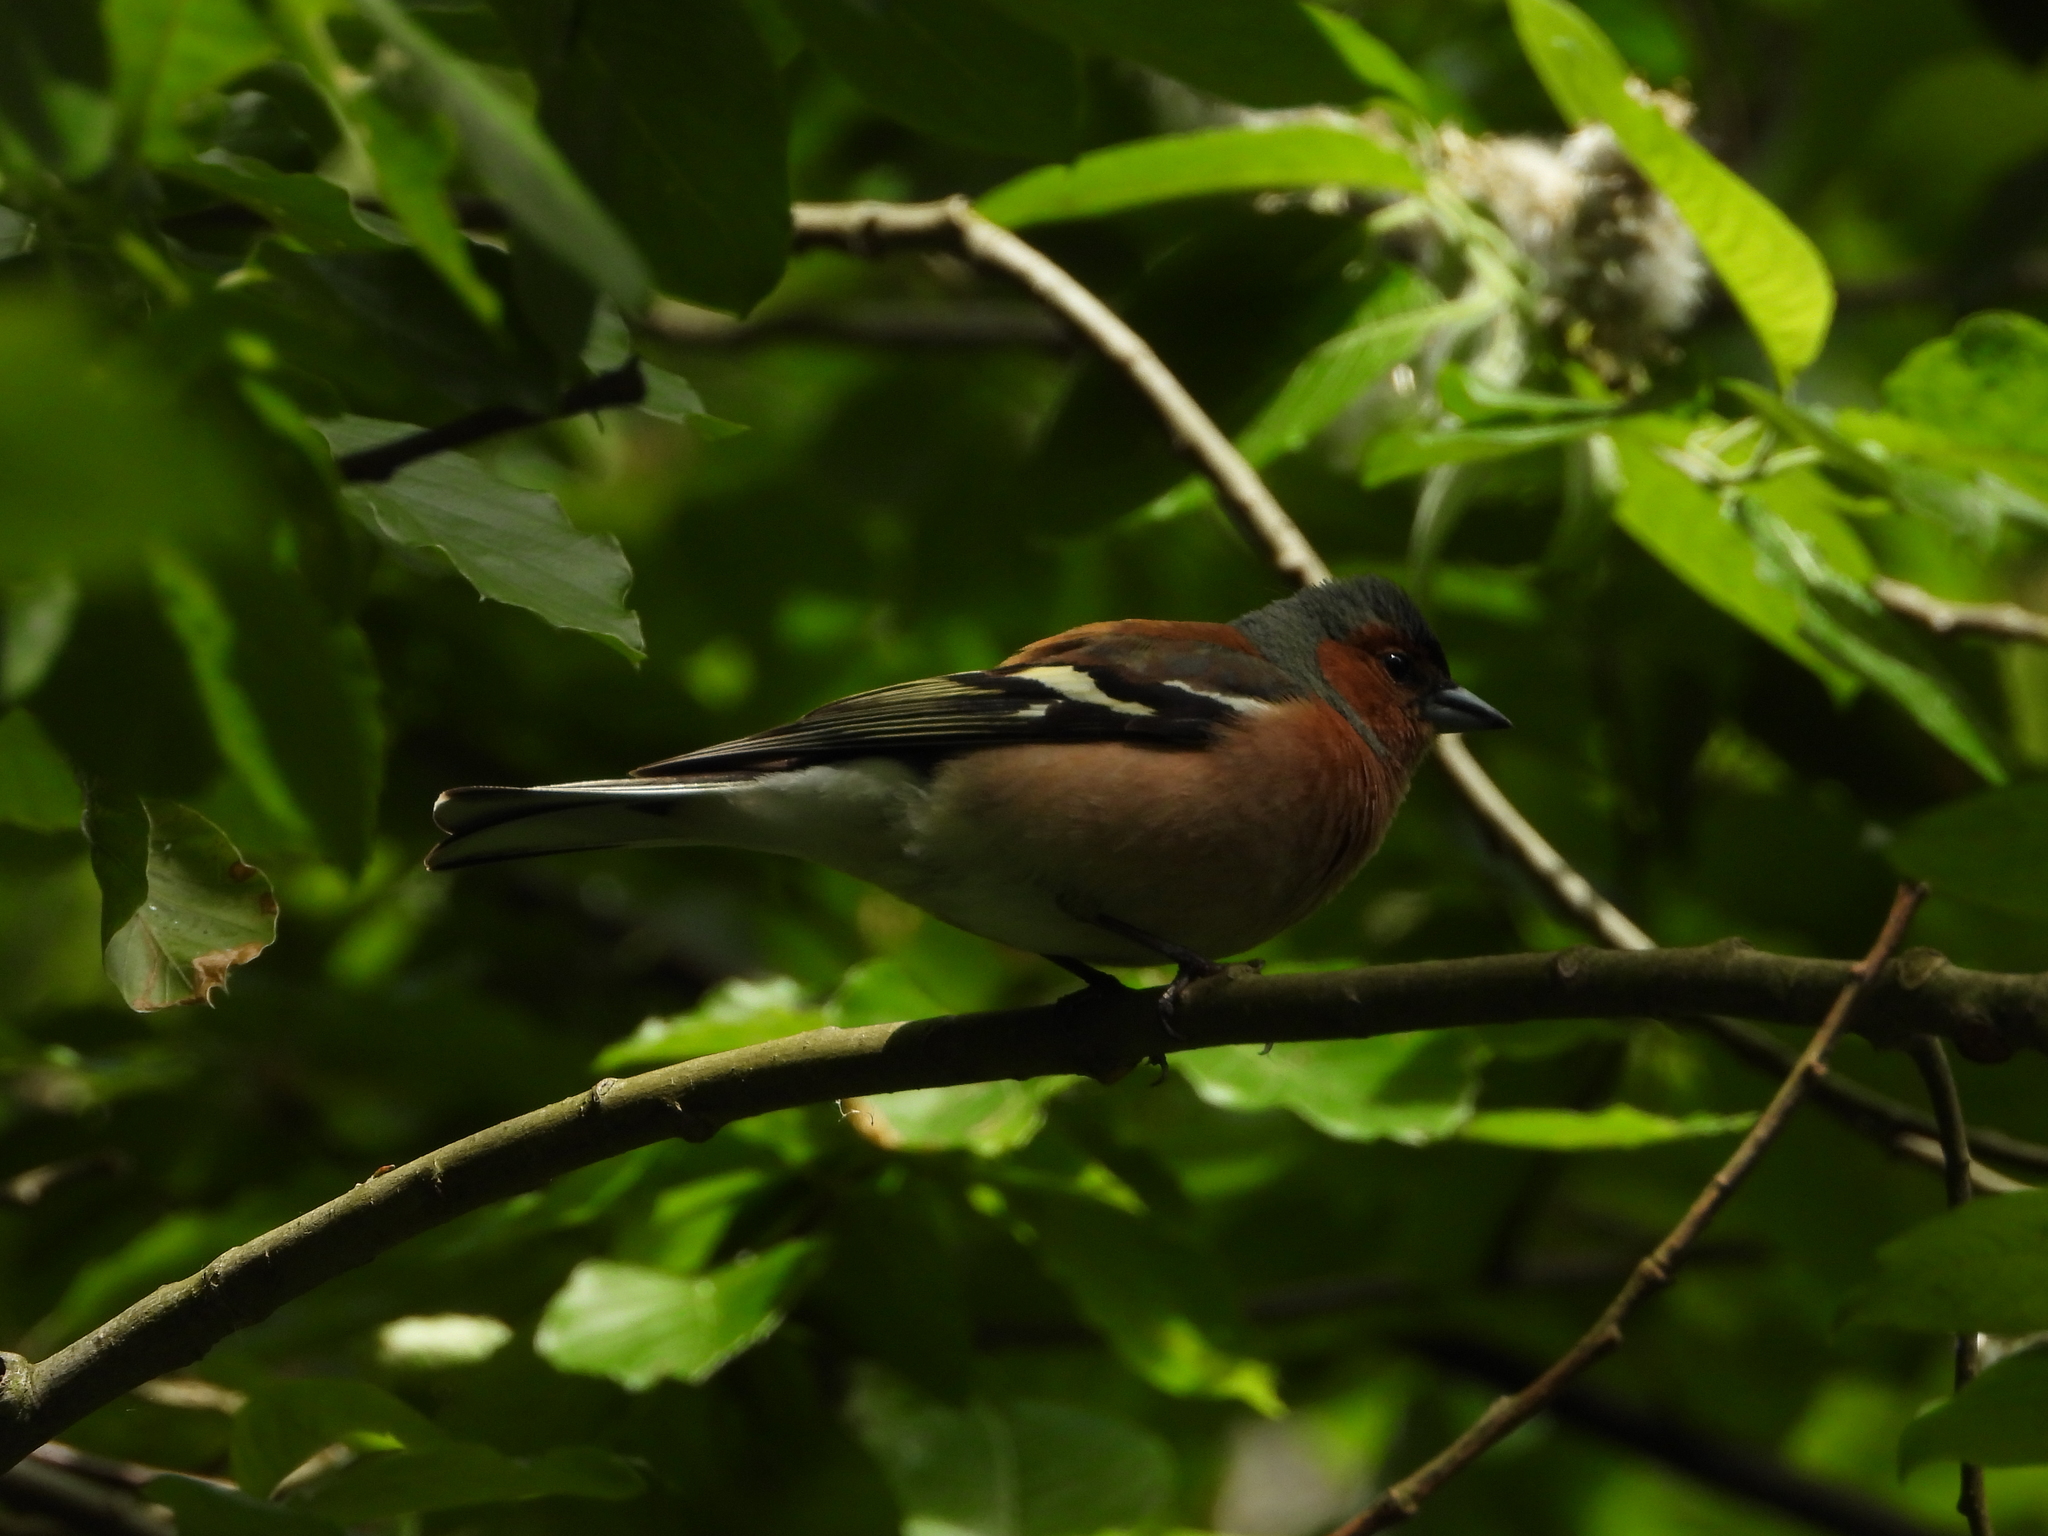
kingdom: Animalia
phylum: Chordata
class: Aves
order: Passeriformes
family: Fringillidae
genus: Fringilla
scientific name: Fringilla coelebs
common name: Common chaffinch
